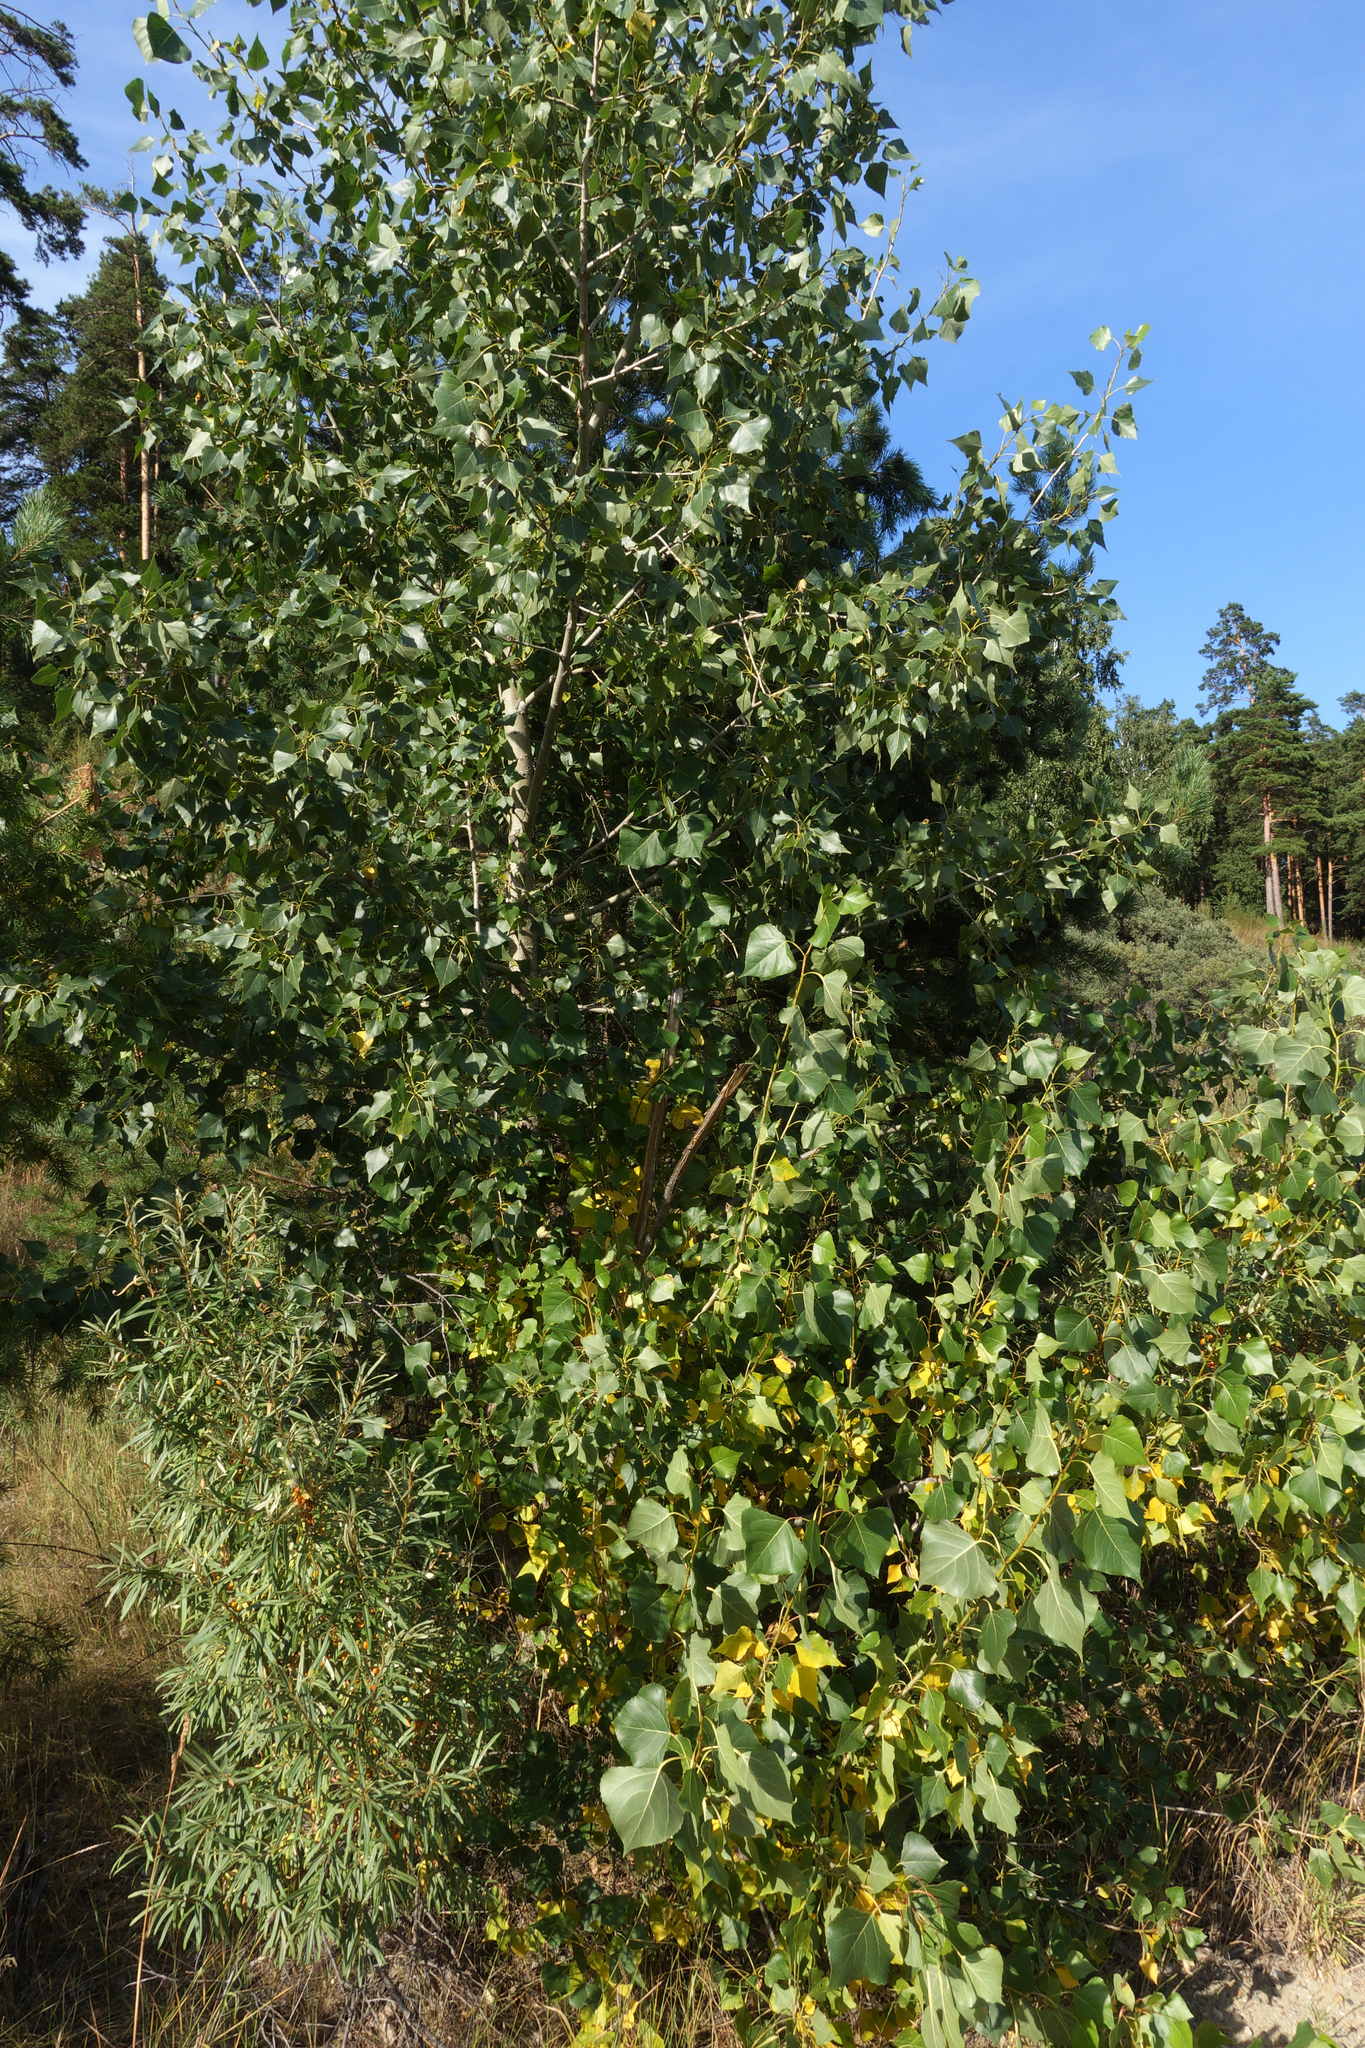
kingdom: Plantae
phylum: Tracheophyta
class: Magnoliopsida
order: Malpighiales
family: Salicaceae
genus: Populus
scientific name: Populus nigra
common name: Black poplar
